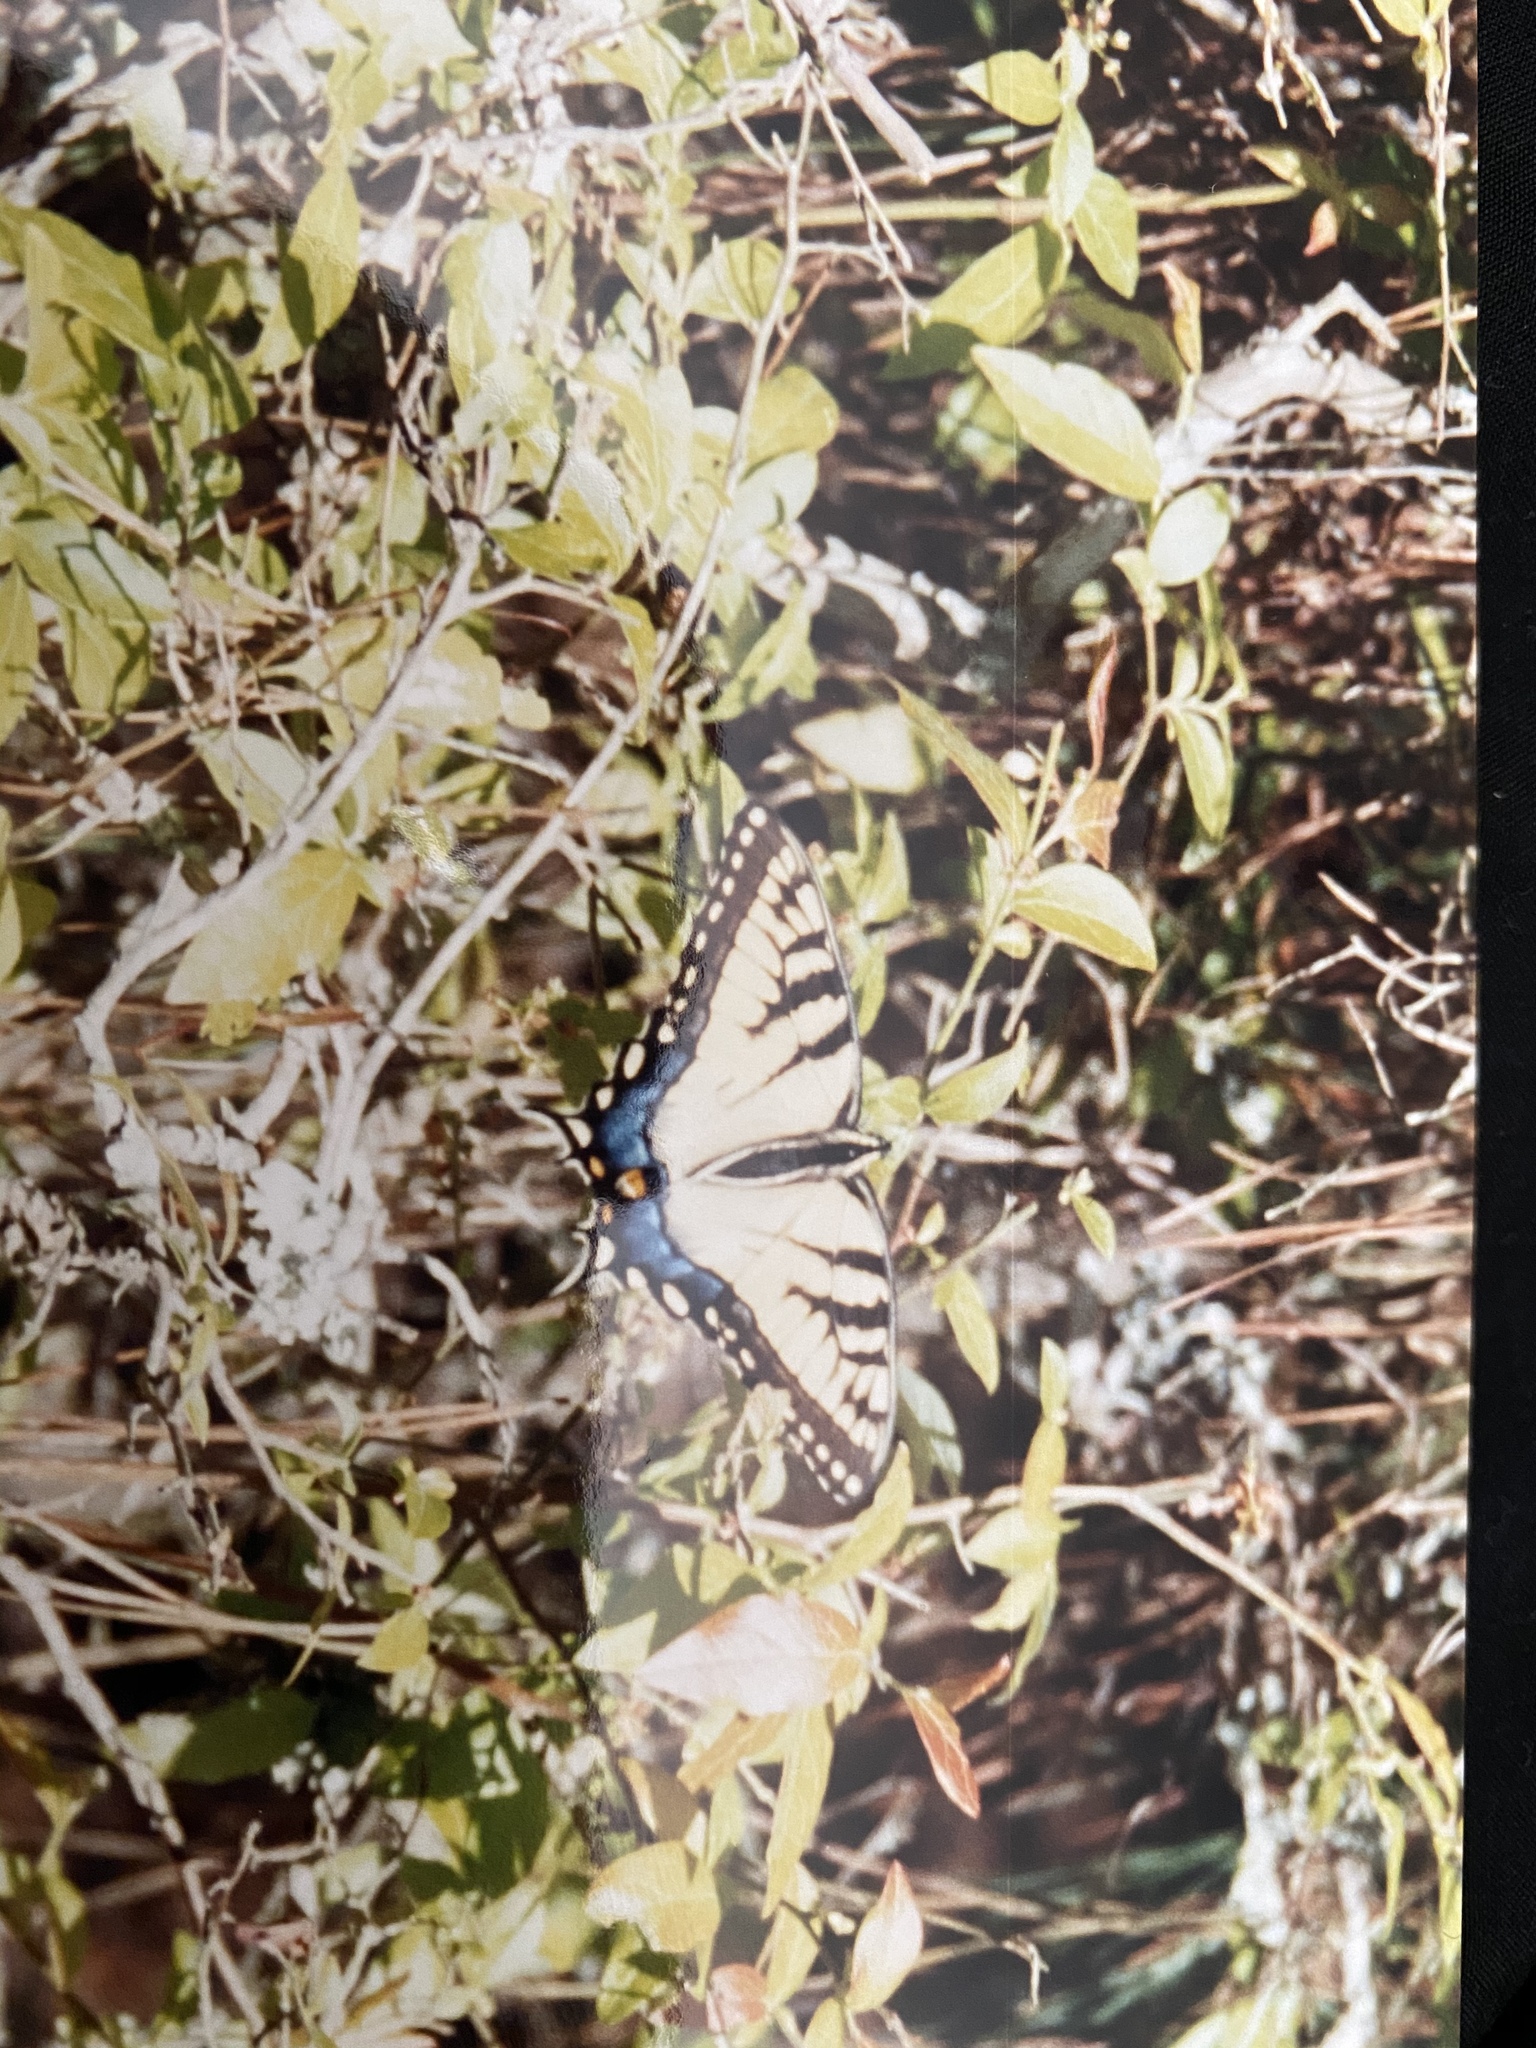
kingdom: Animalia
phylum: Arthropoda
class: Insecta
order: Lepidoptera
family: Papilionidae
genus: Papilio
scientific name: Papilio glaucus
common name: Tiger swallowtail
